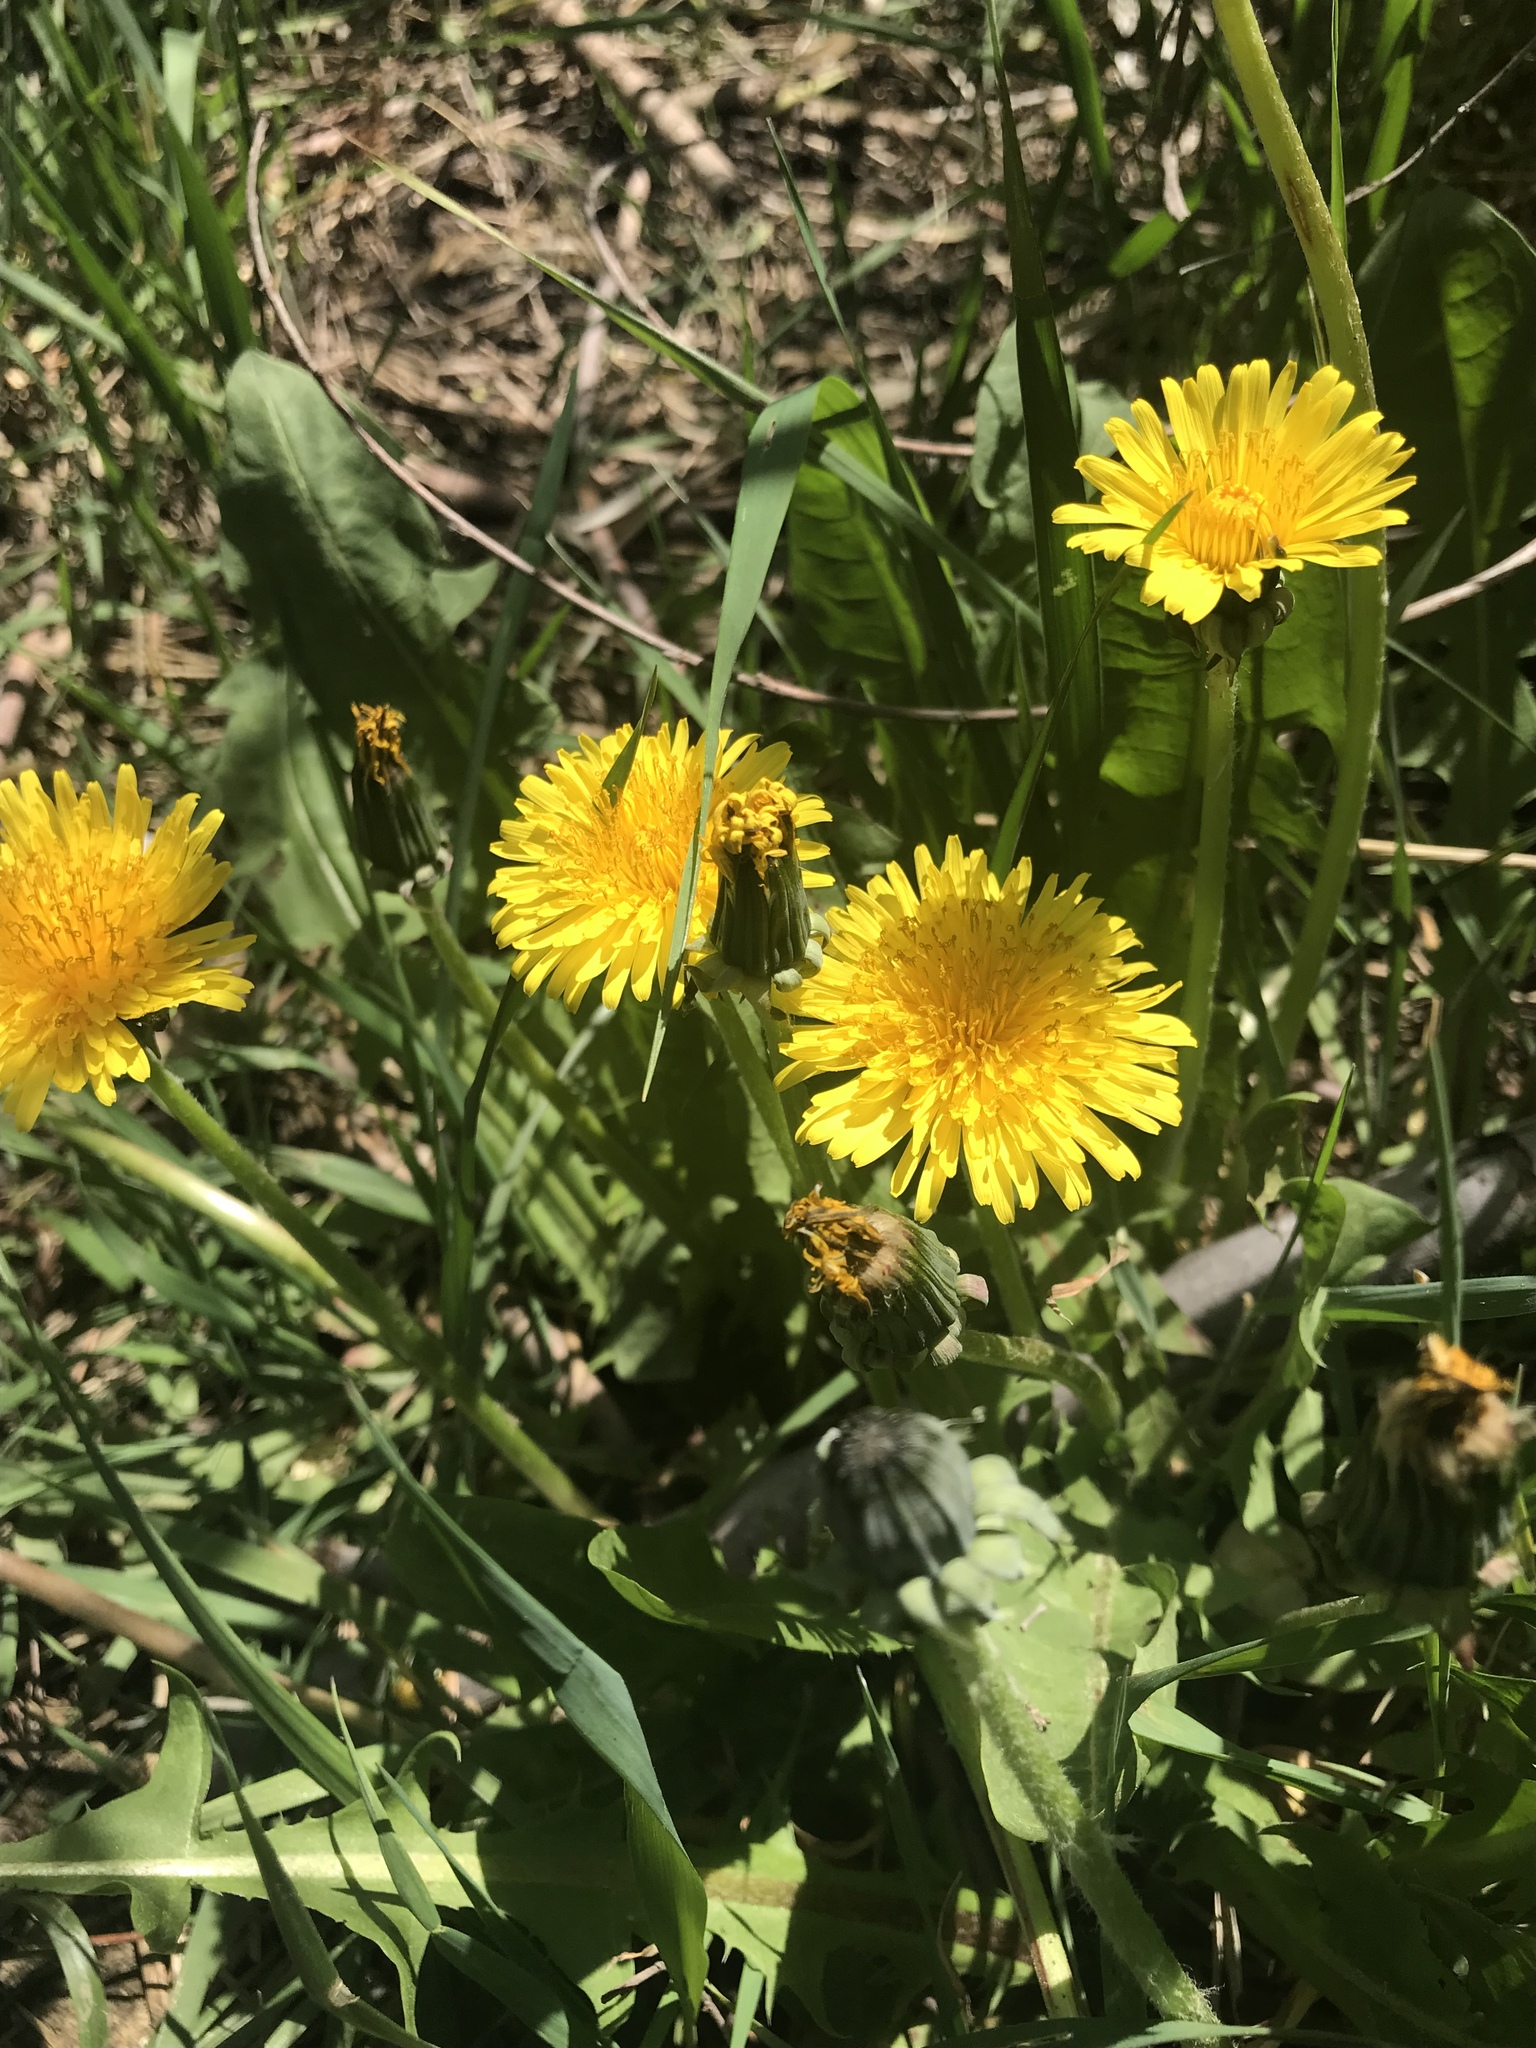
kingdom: Plantae
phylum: Tracheophyta
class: Magnoliopsida
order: Asterales
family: Asteraceae
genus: Taraxacum
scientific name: Taraxacum officinale
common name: Common dandelion
